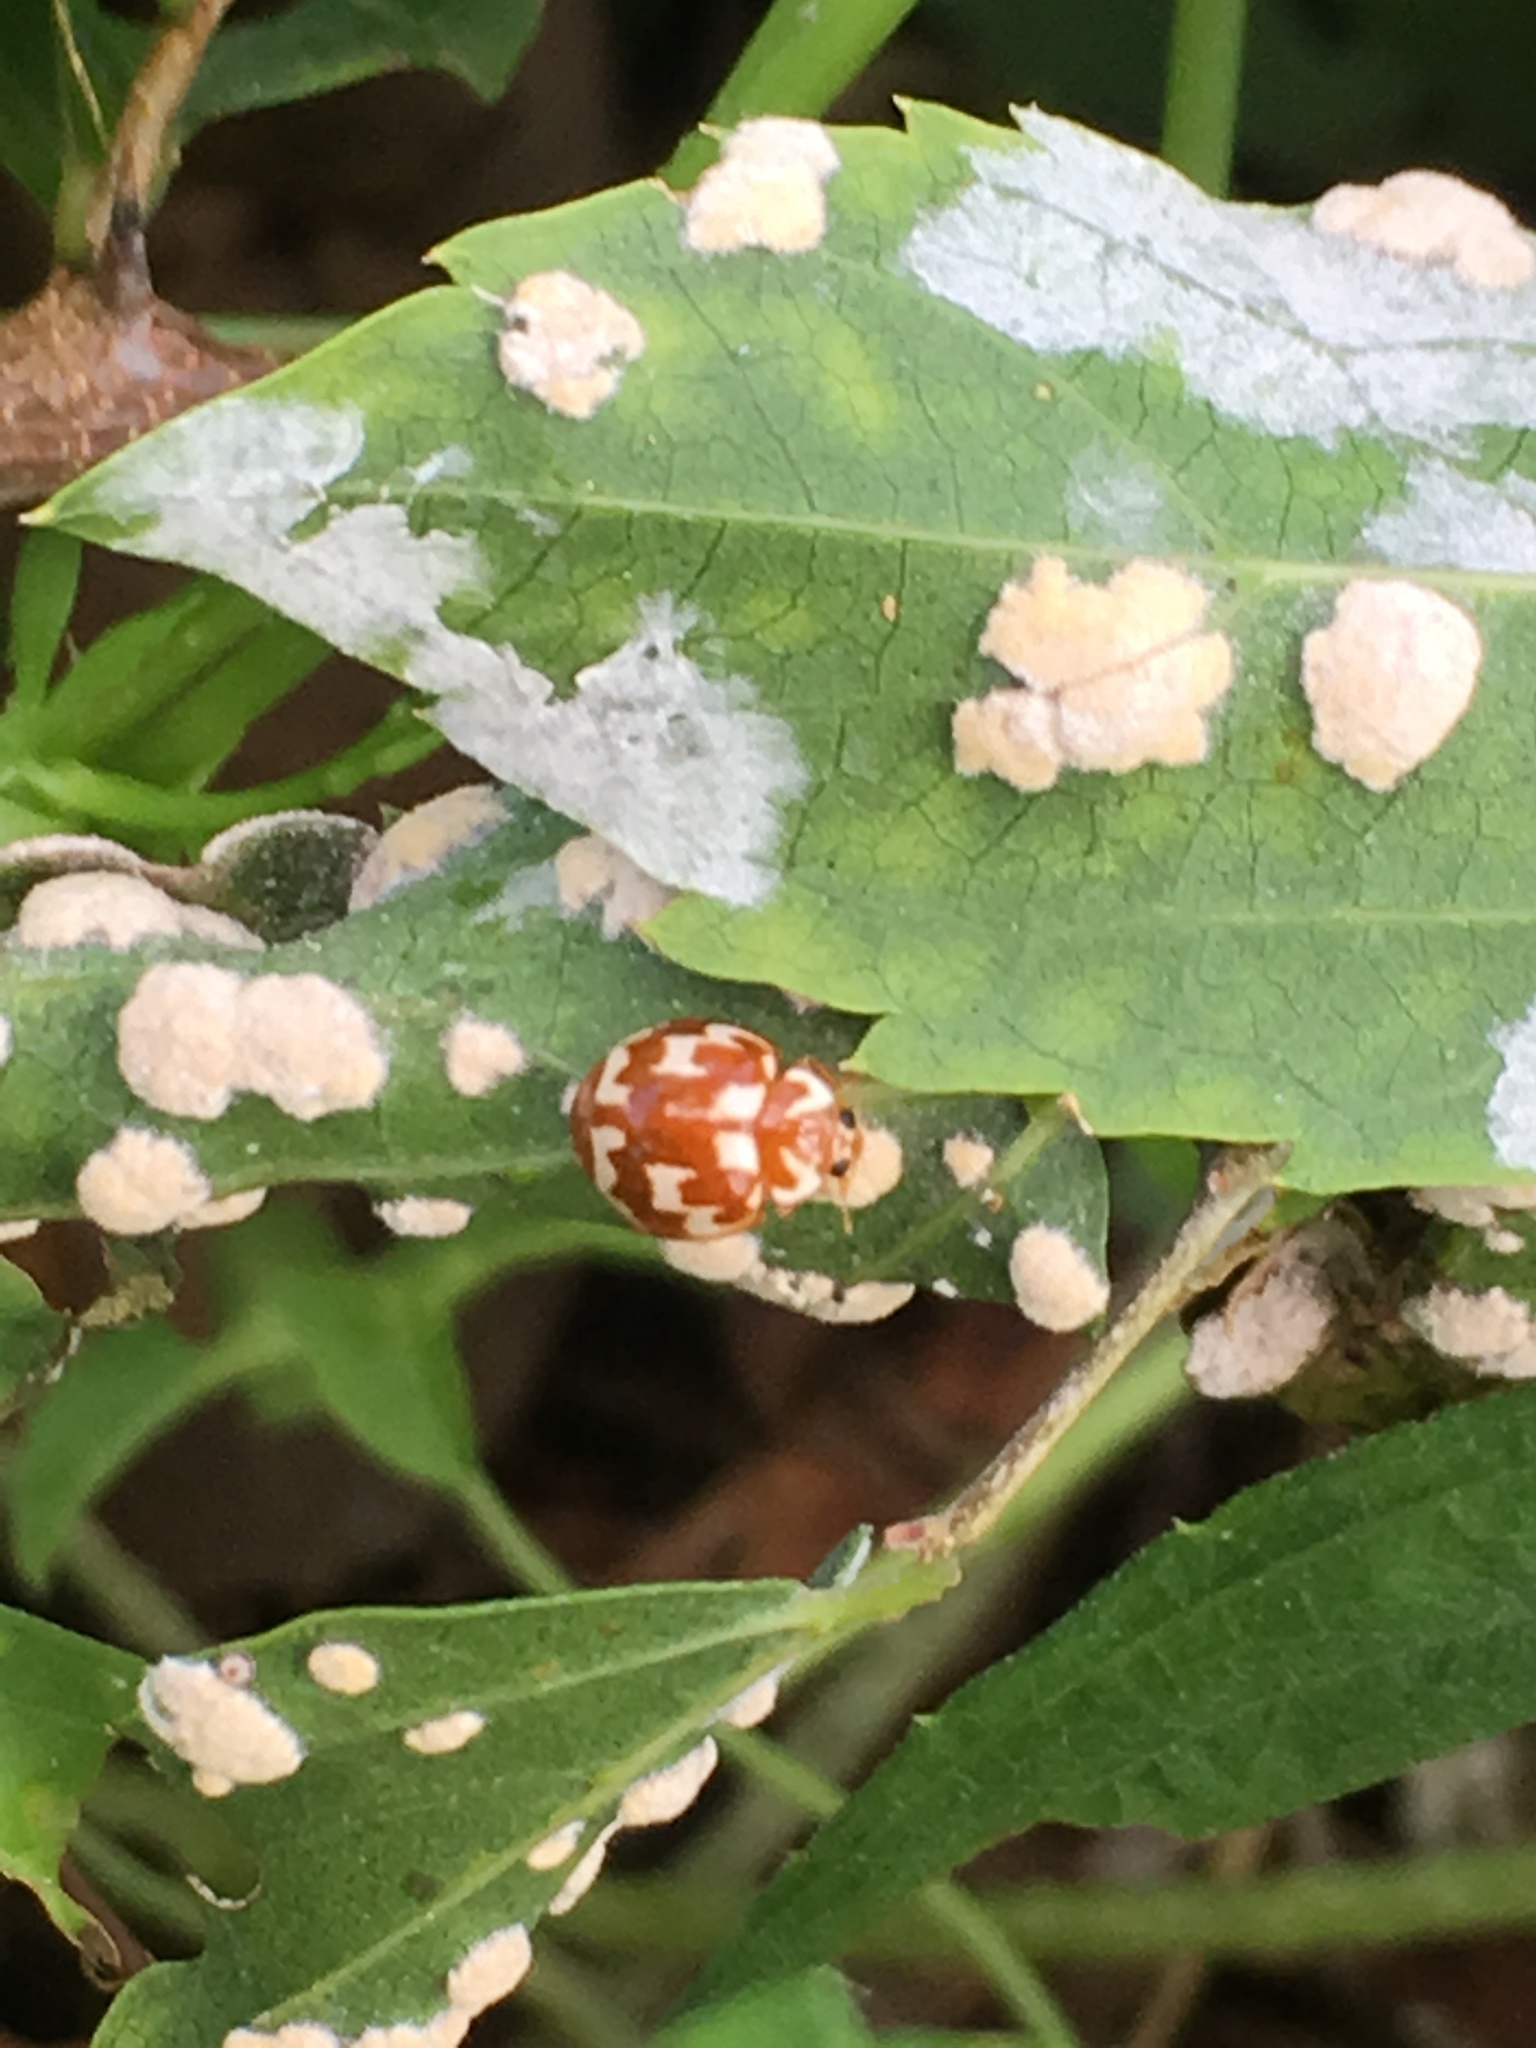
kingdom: Animalia
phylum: Arthropoda
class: Insecta
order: Coleoptera
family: Coccinellidae
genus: Neocalvia
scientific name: Neocalvia
